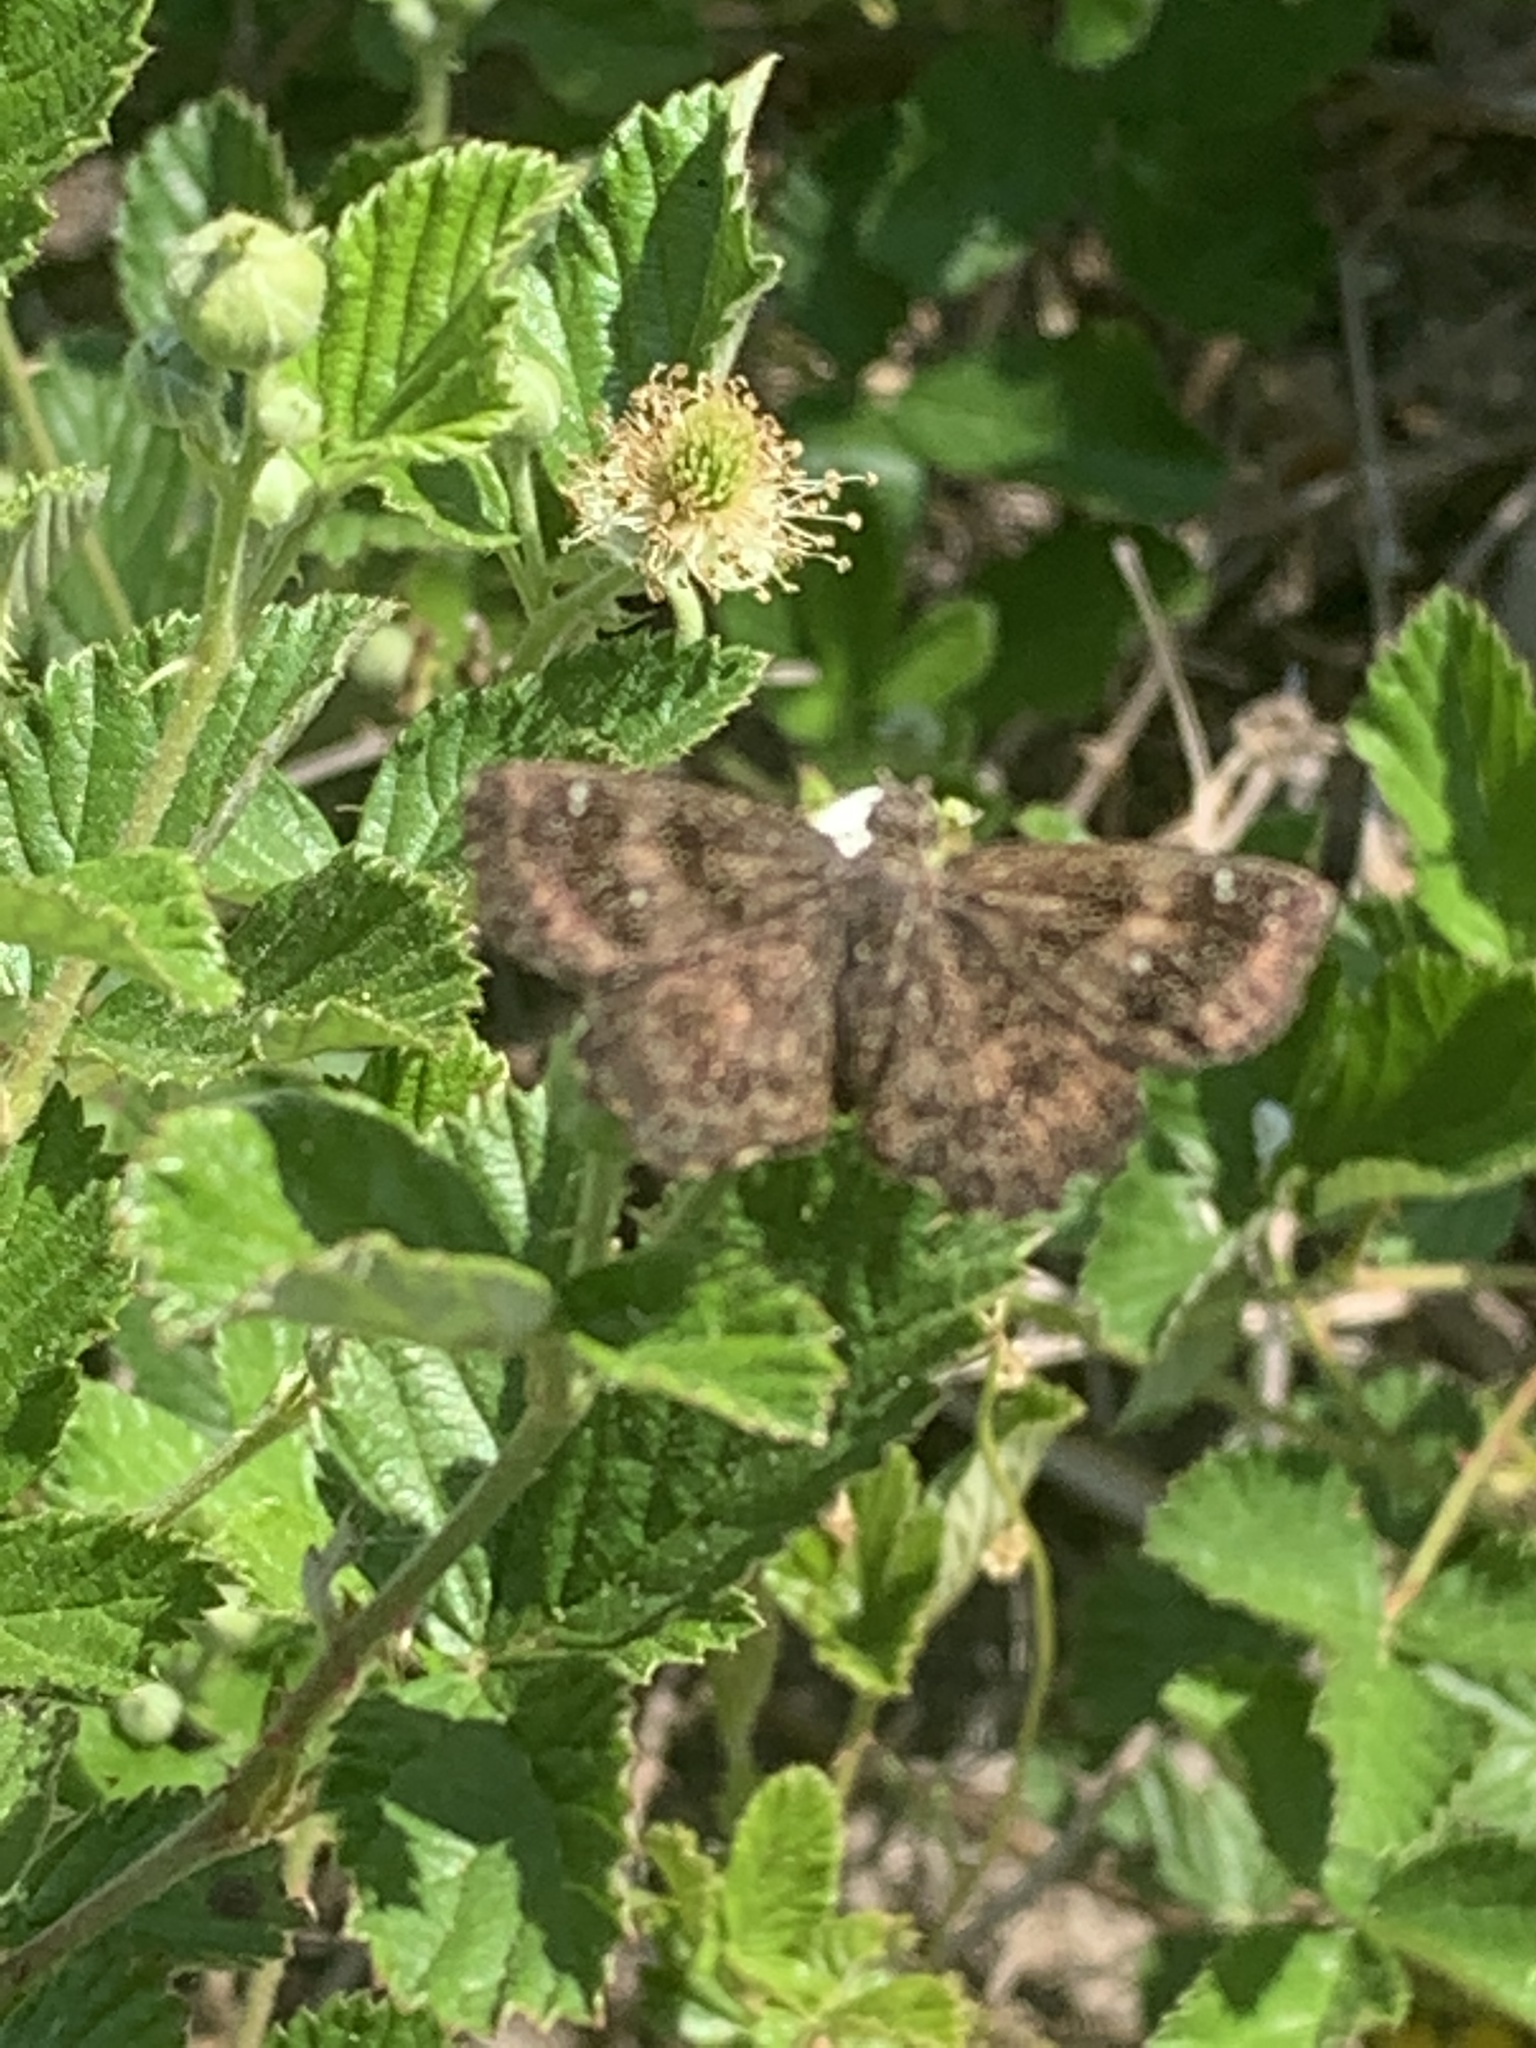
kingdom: Animalia
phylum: Arthropoda
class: Insecta
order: Lepidoptera
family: Hesperiidae
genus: Staphylus
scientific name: Staphylus mazans
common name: Mazans scallopwing
